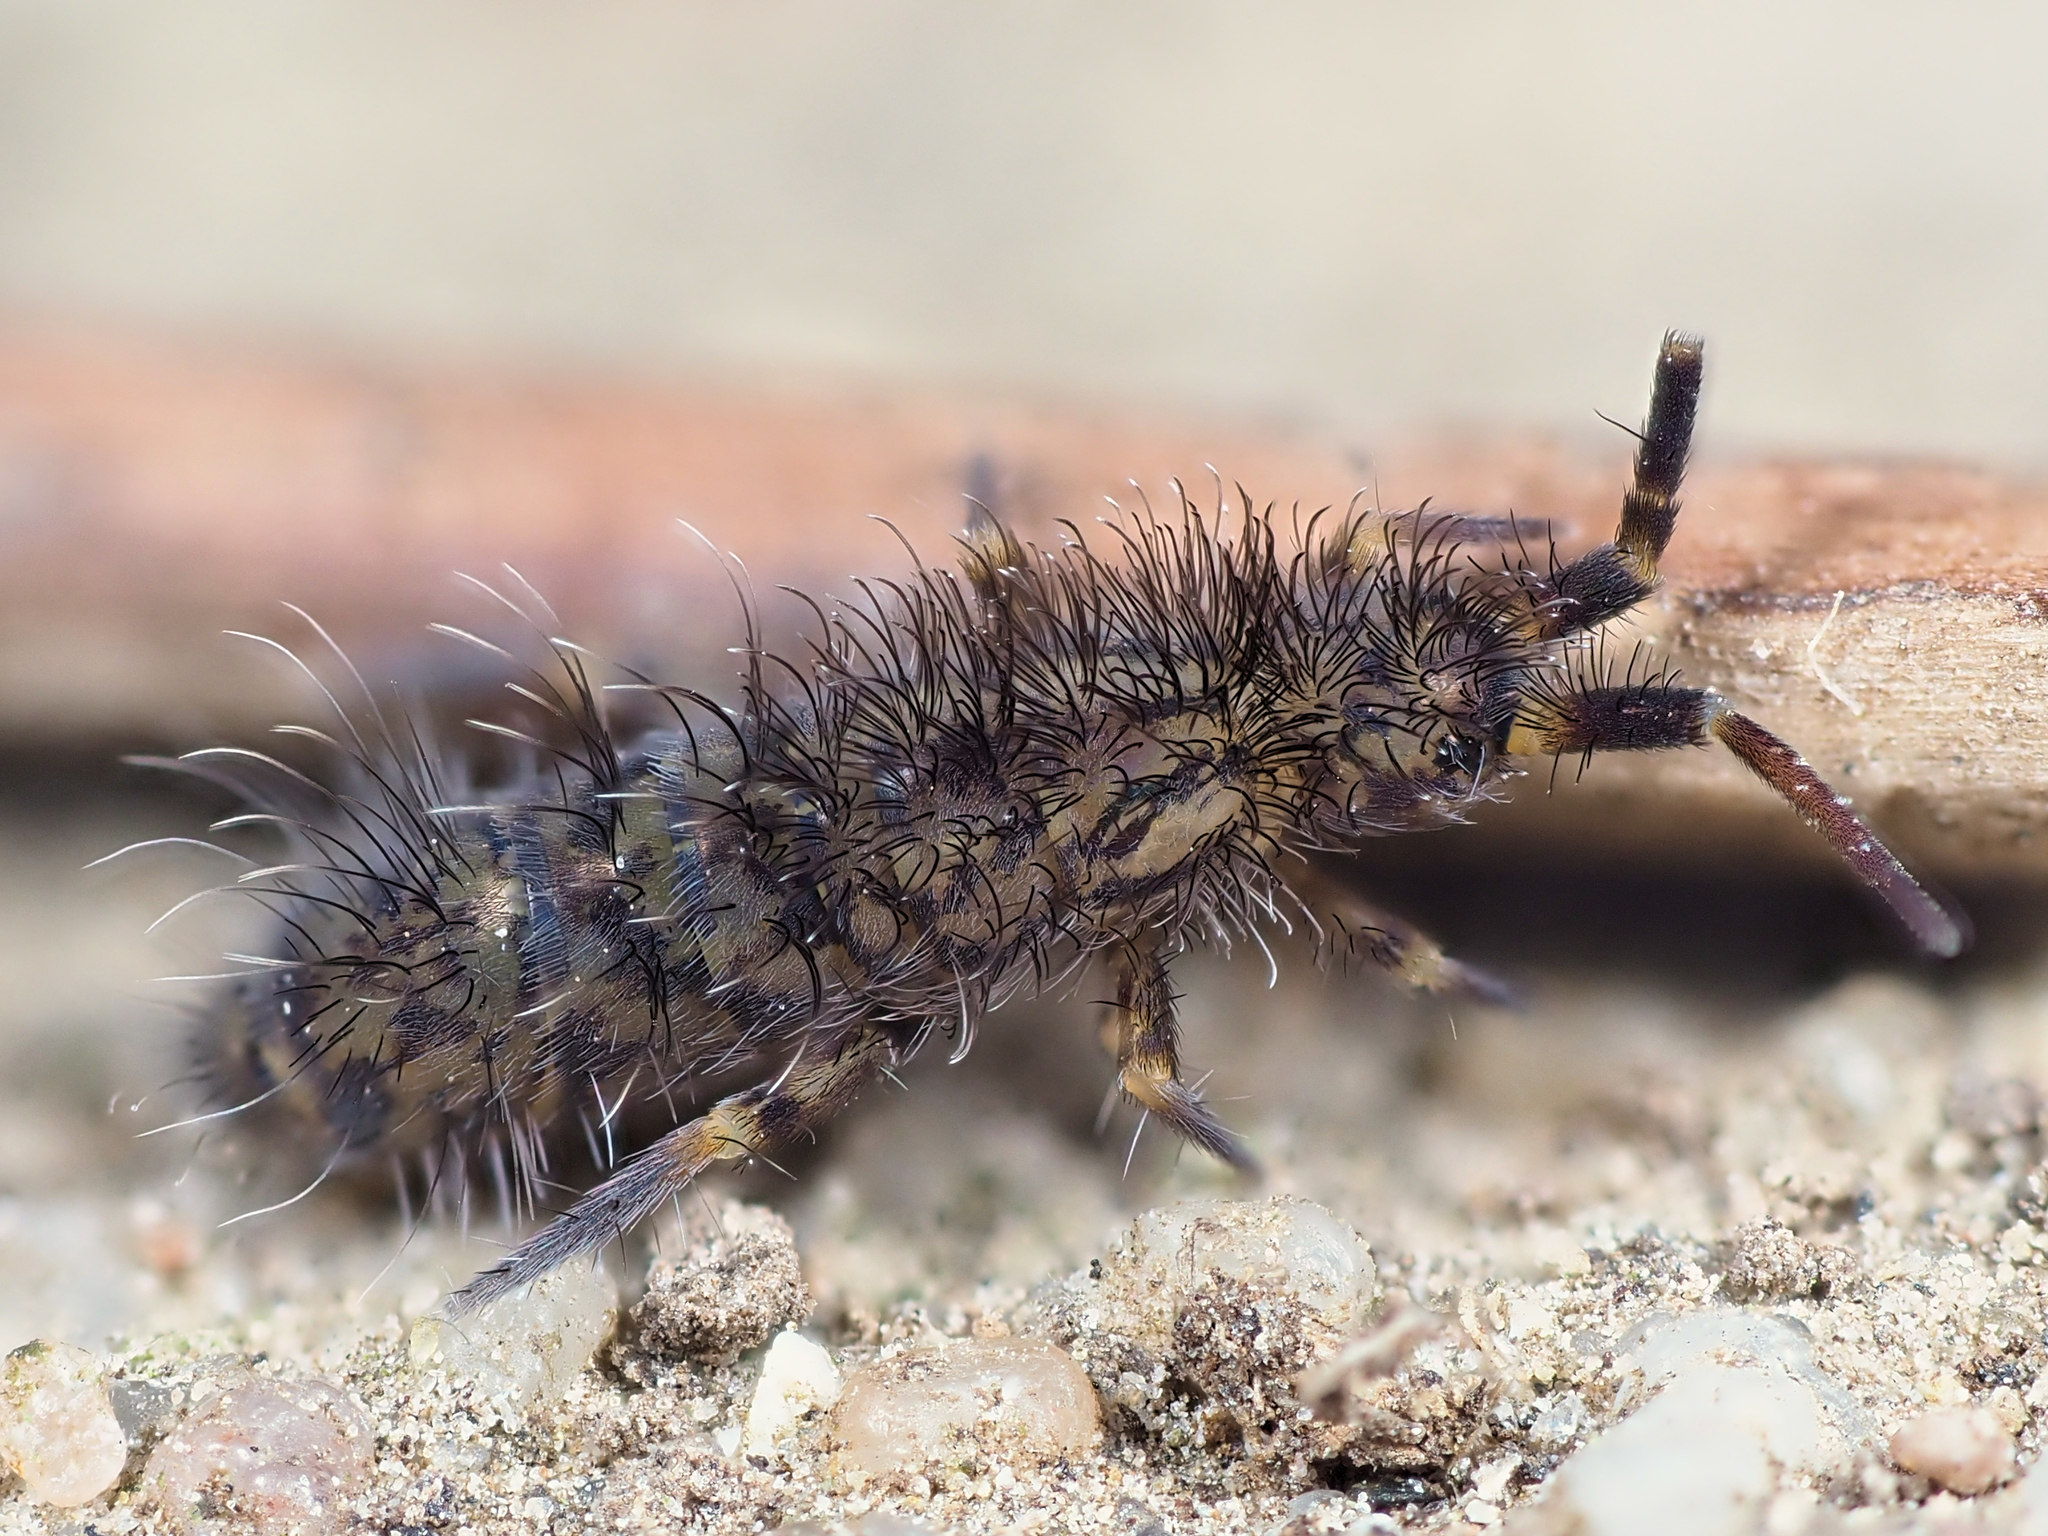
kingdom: Animalia
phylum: Arthropoda
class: Collembola
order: Entomobryomorpha
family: Orchesellidae
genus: Orchesella
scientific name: Orchesella villosa
